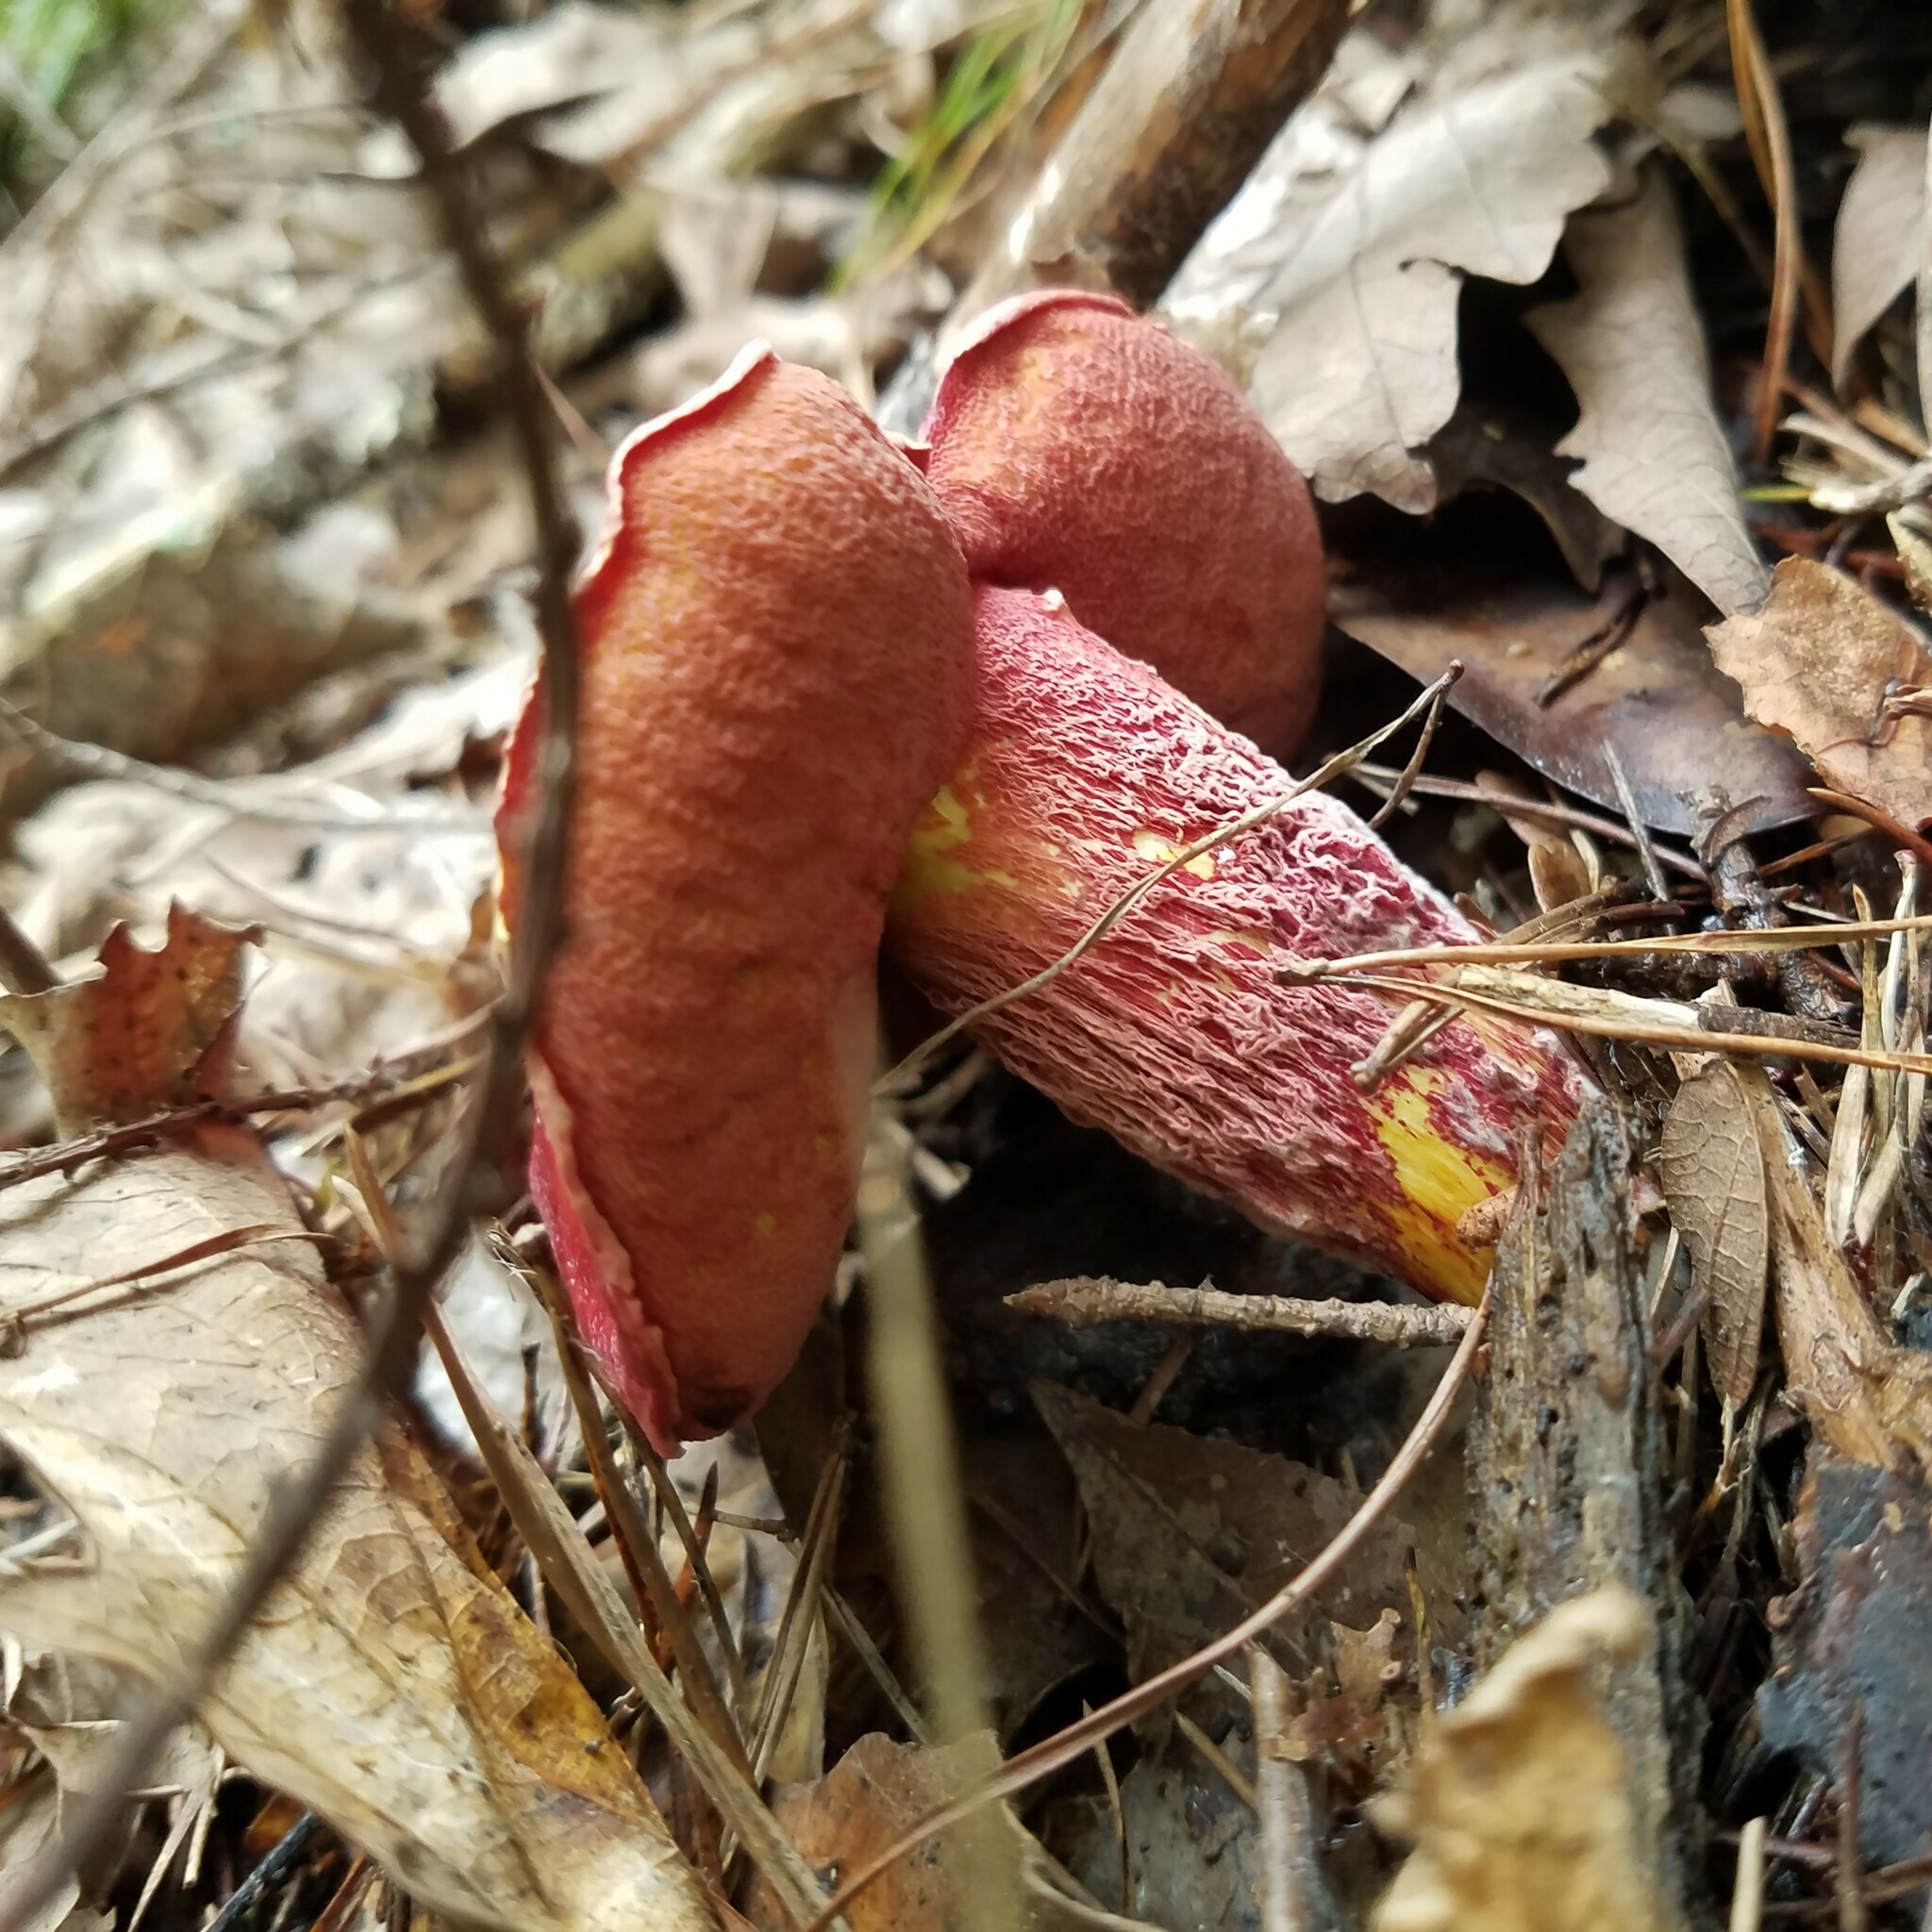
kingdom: Fungi
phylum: Basidiomycota
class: Agaricomycetes
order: Boletales
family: Boletaceae
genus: Butyriboletus
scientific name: Butyriboletus frostii
